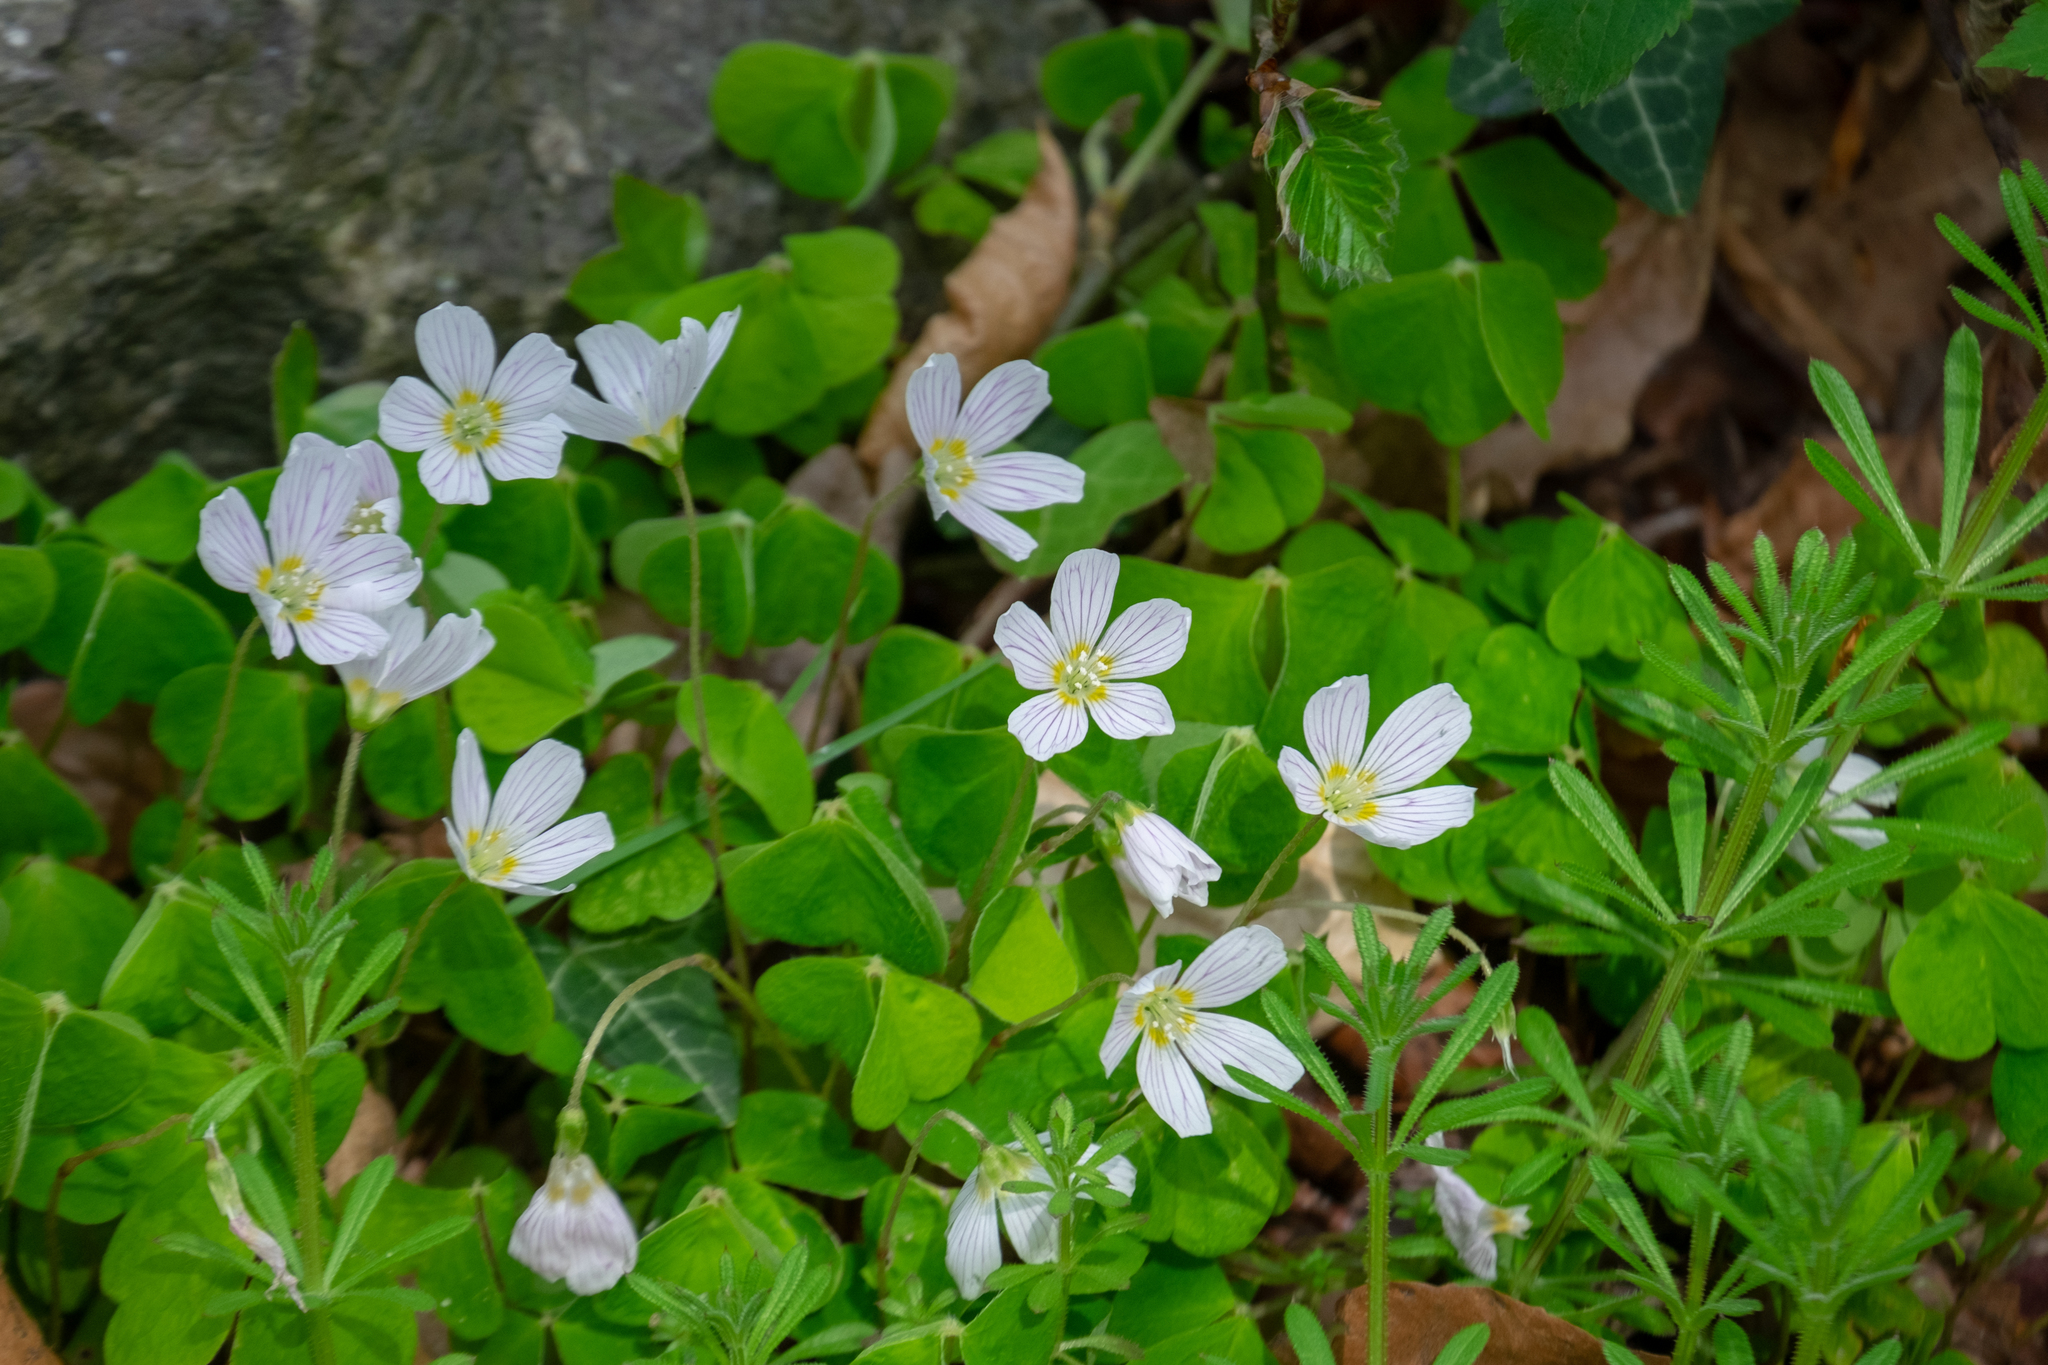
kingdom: Plantae
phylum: Tracheophyta
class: Magnoliopsida
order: Oxalidales
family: Oxalidaceae
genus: Oxalis
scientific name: Oxalis acetosella
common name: Wood-sorrel
